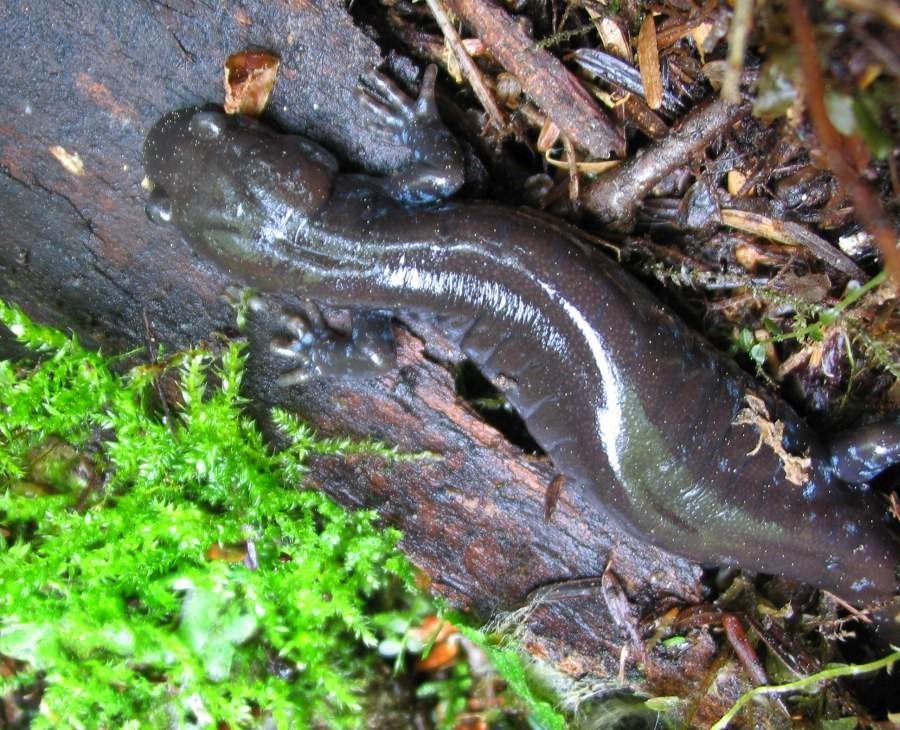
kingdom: Animalia
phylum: Chordata
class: Amphibia
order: Caudata
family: Ambystomatidae
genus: Ambystoma
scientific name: Ambystoma laterale
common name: Blue-spotted salamander
